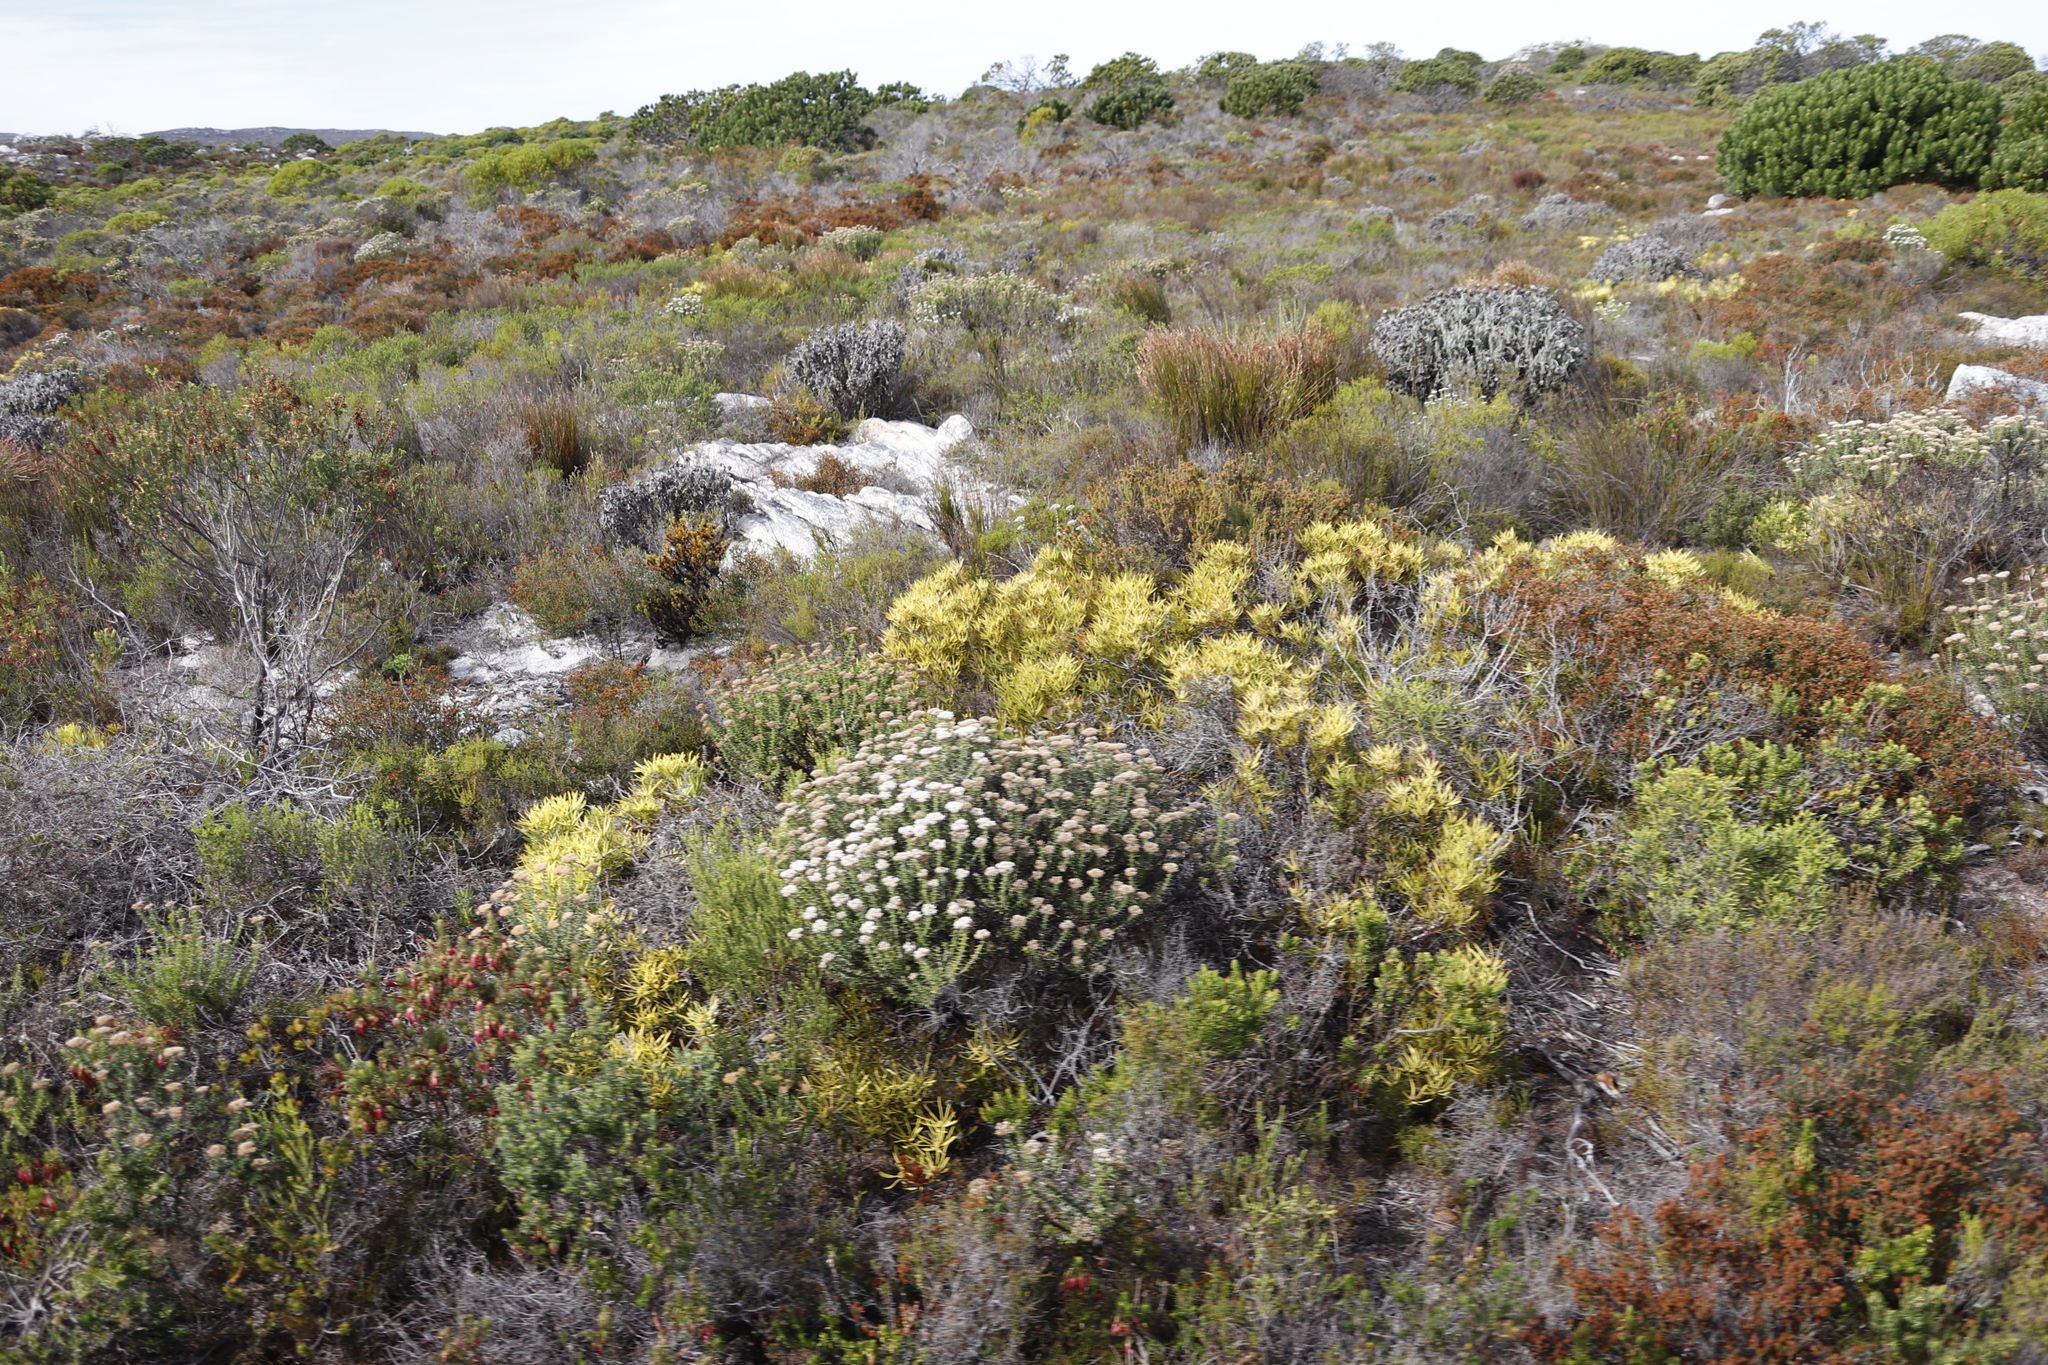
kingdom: Plantae
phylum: Tracheophyta
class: Magnoliopsida
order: Asterales
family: Asteraceae
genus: Metalasia
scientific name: Metalasia densa
